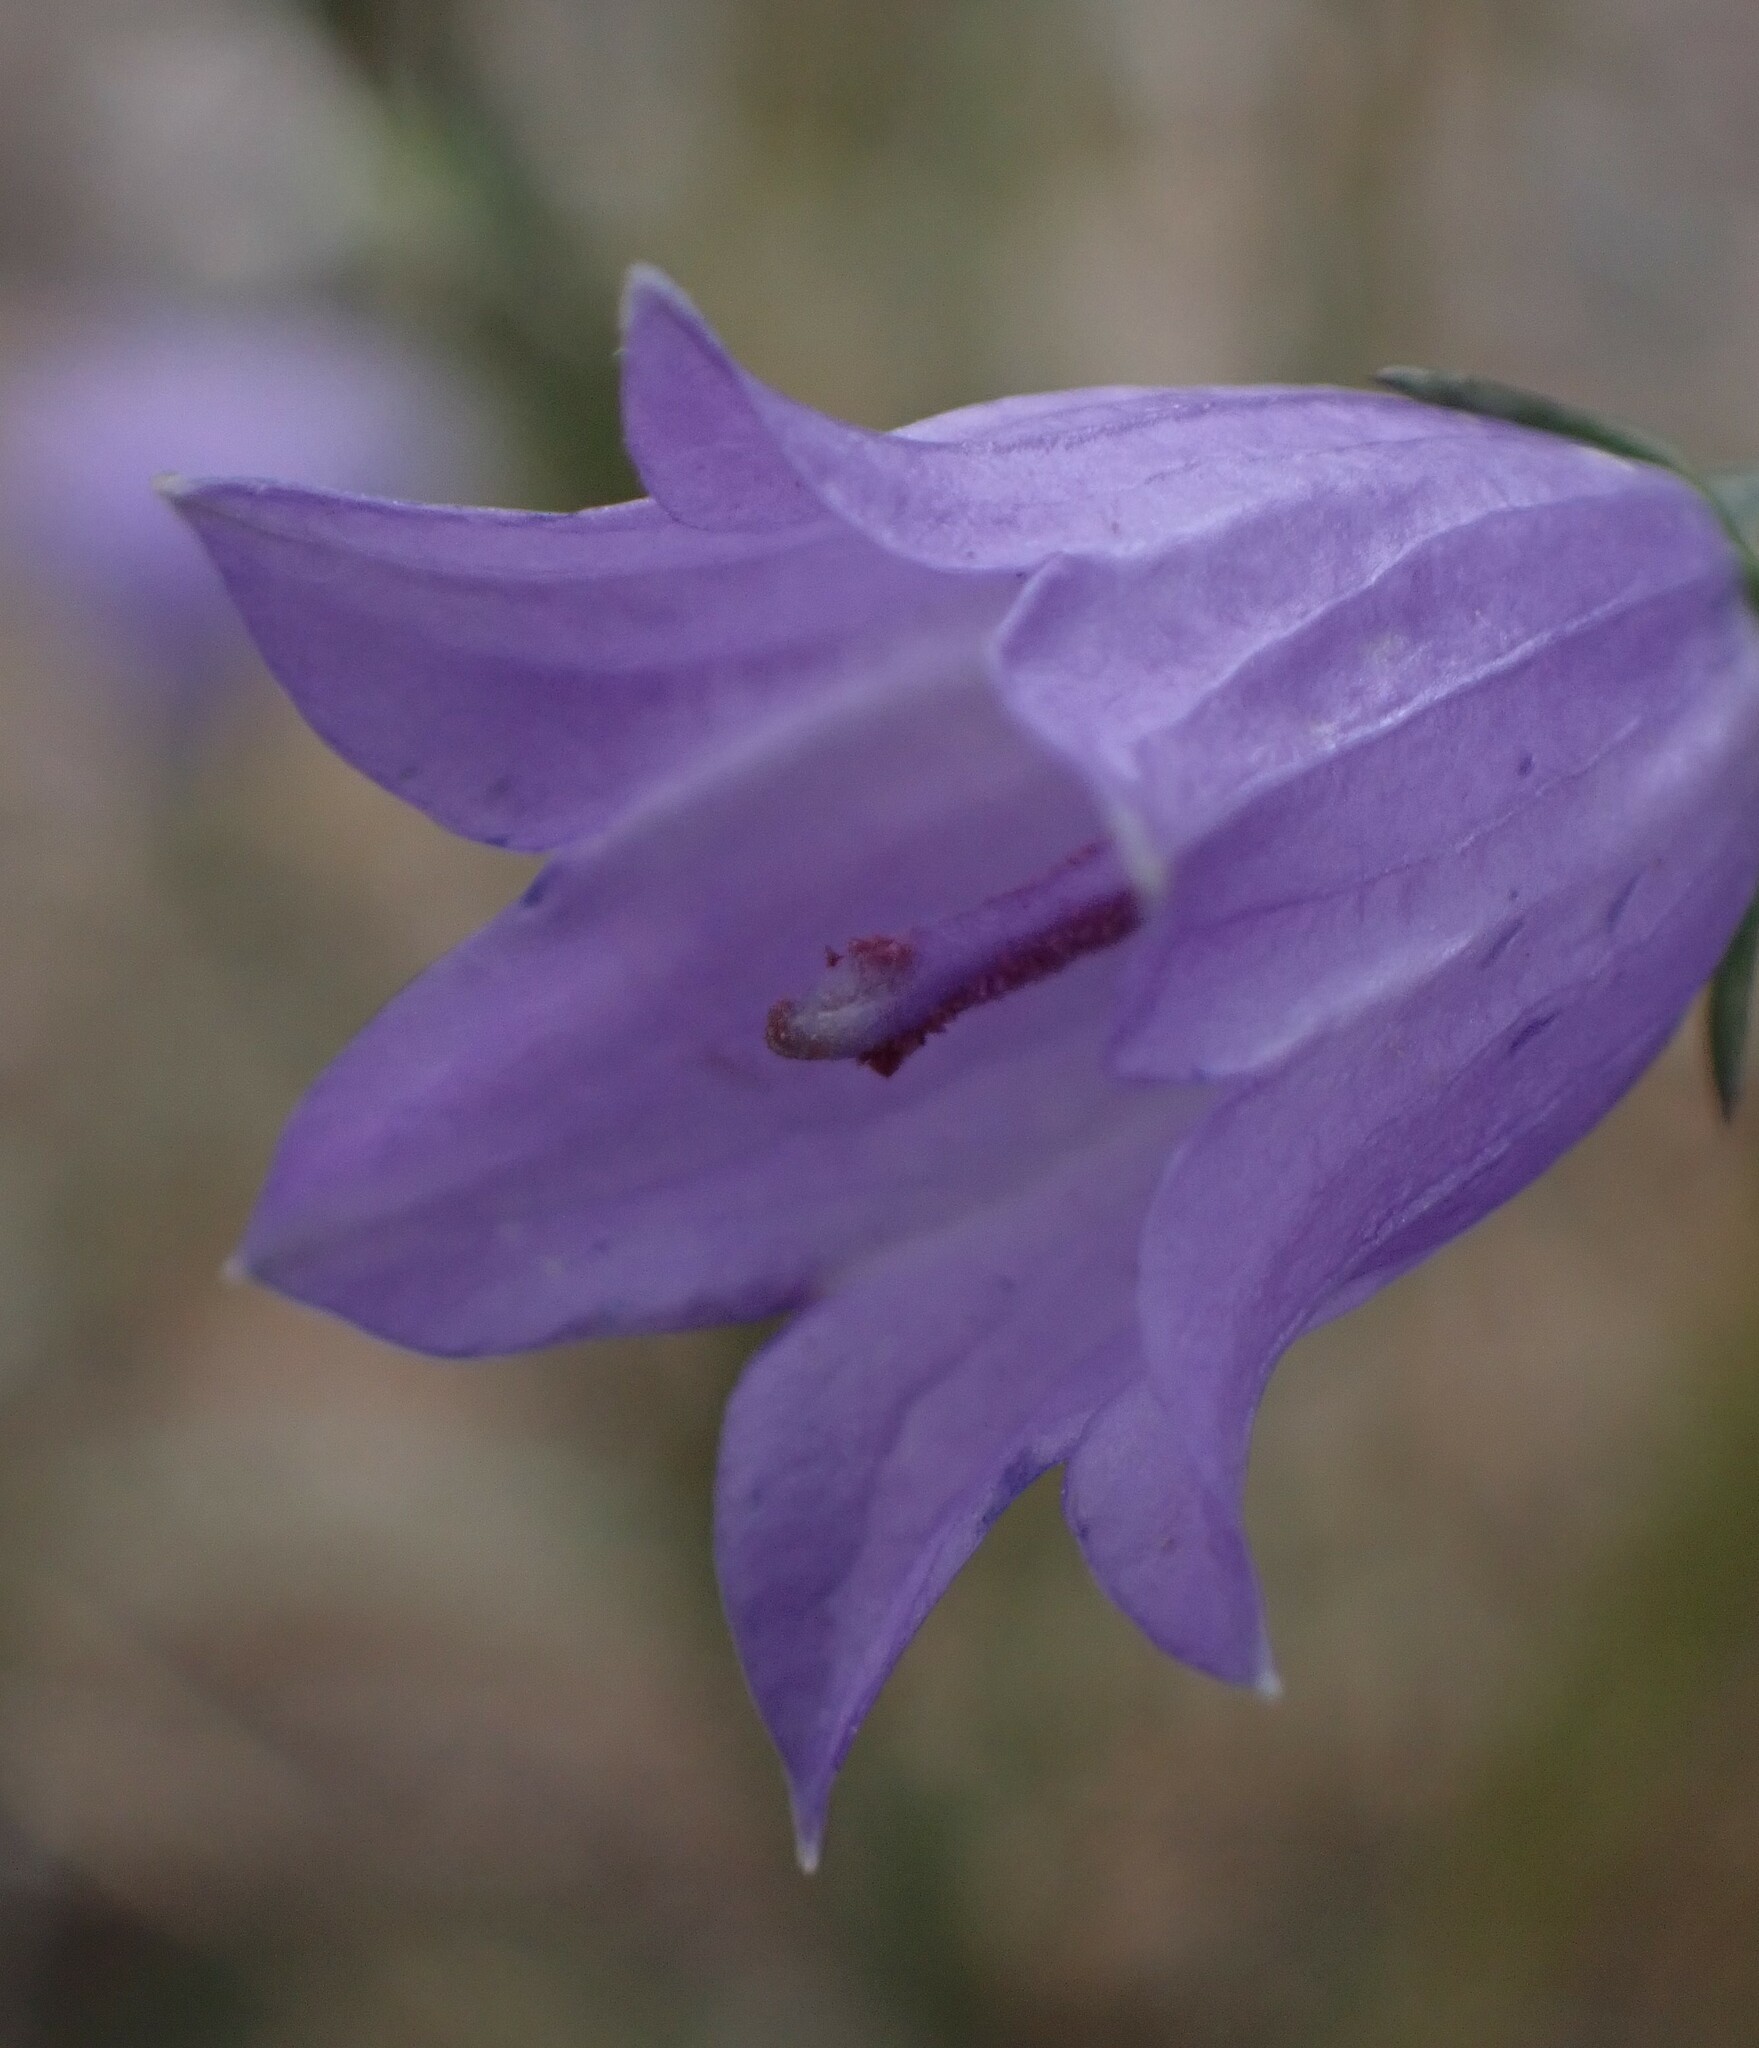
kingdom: Plantae
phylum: Tracheophyta
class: Magnoliopsida
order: Asterales
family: Campanulaceae
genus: Campanula
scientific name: Campanula alaskana
